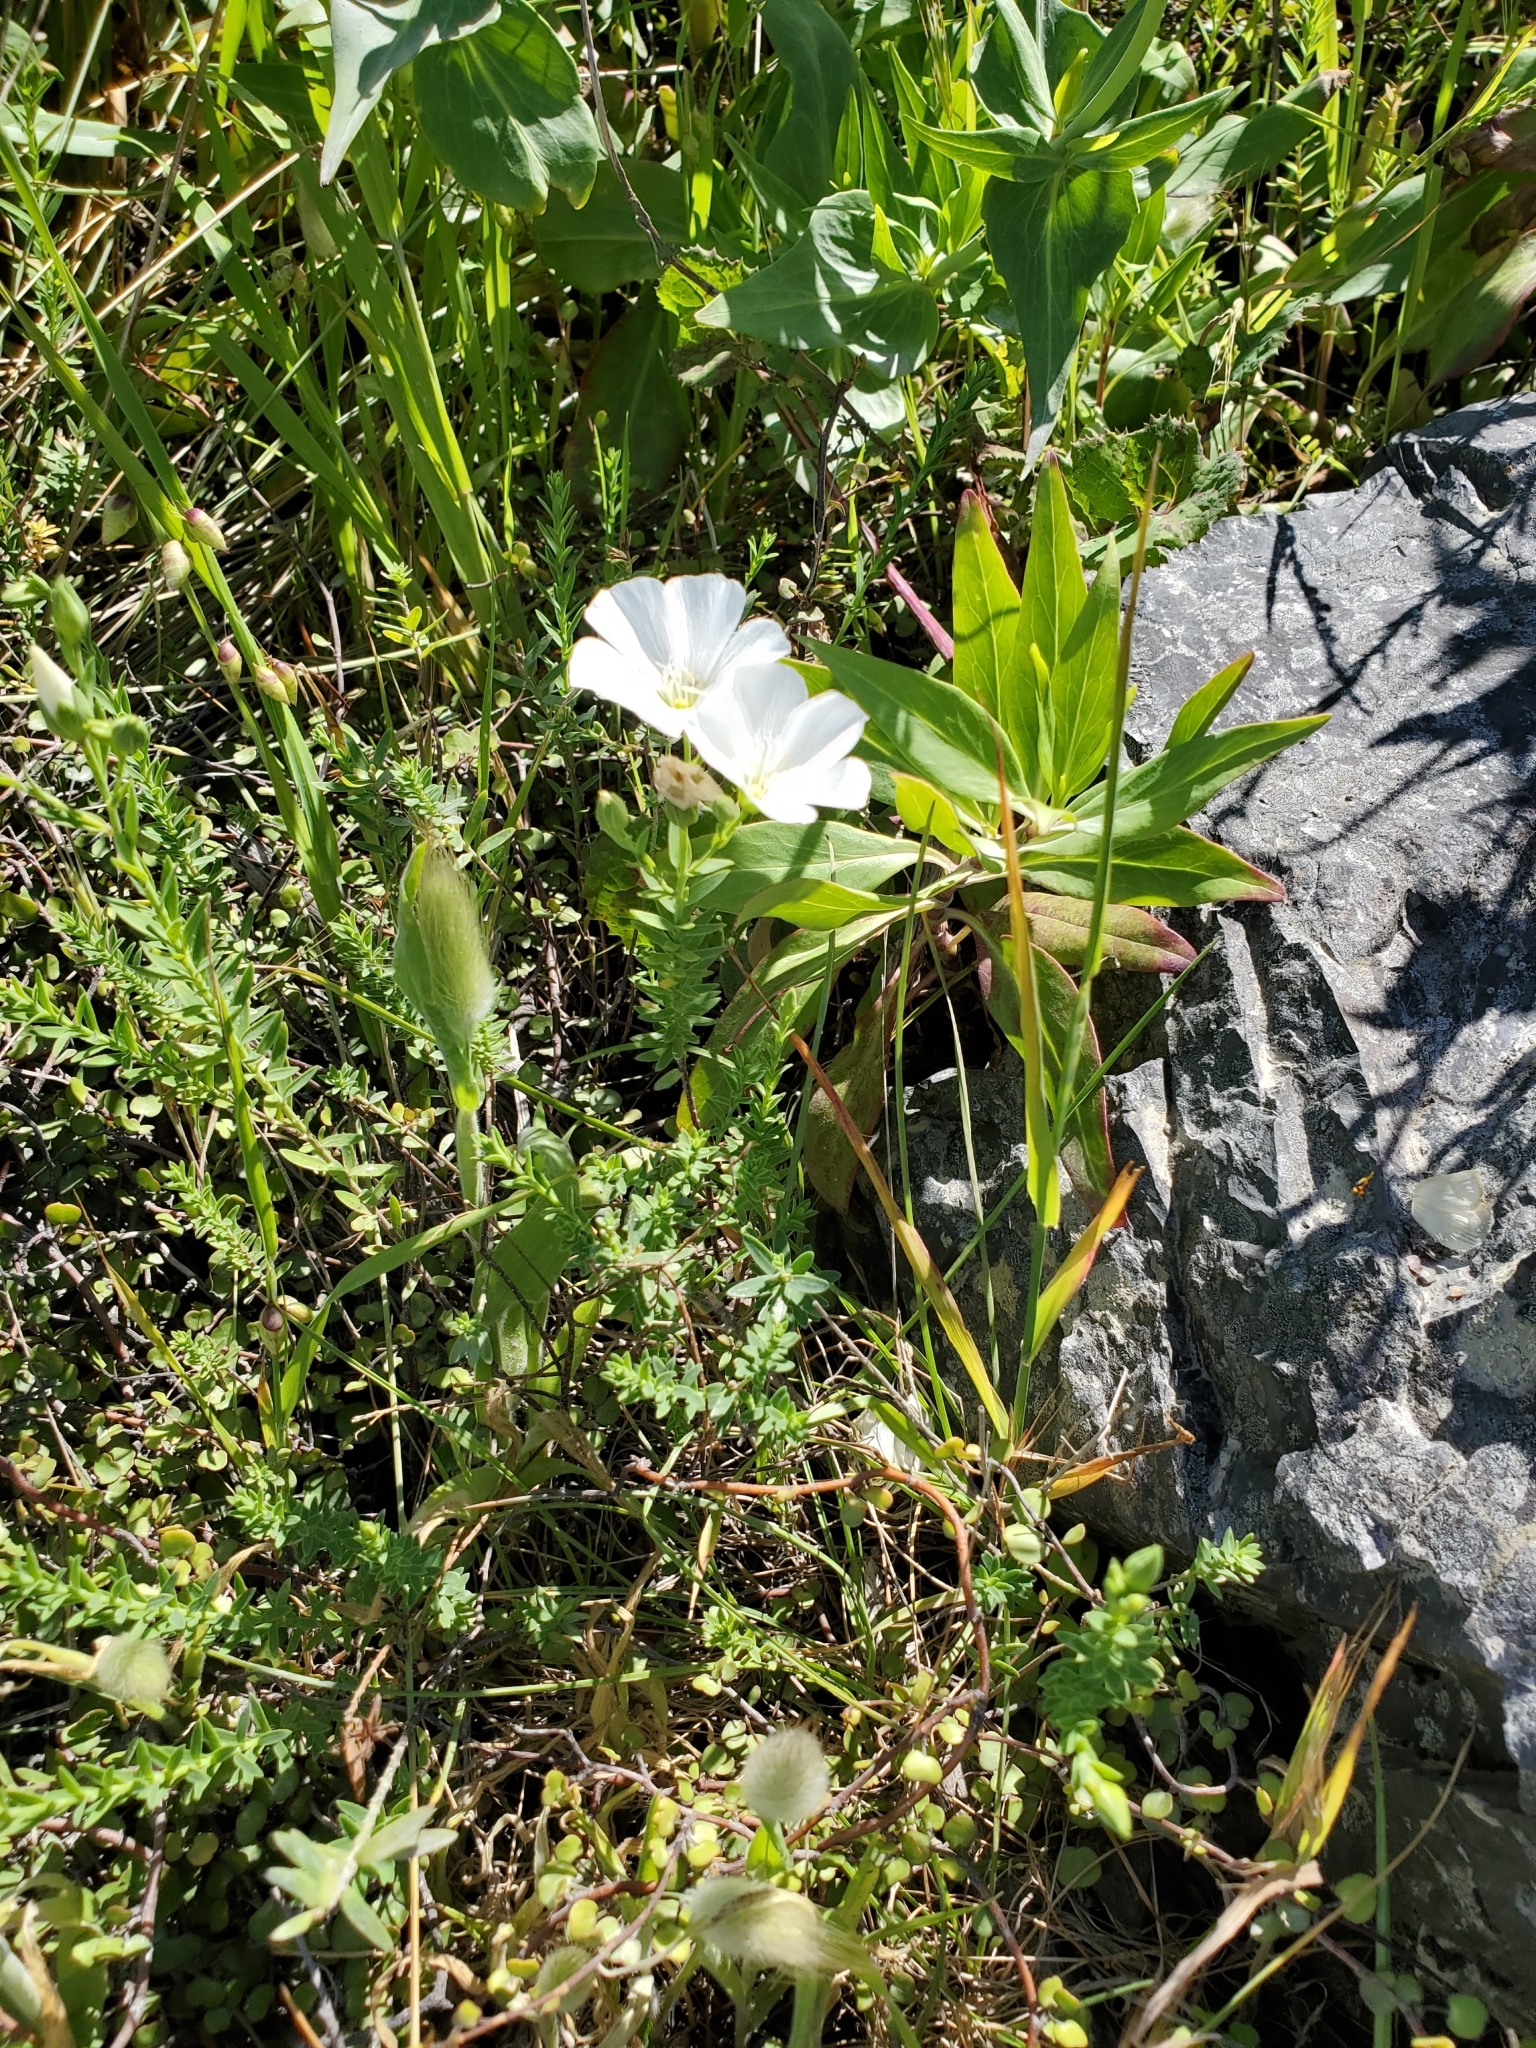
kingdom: Plantae
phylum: Tracheophyta
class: Magnoliopsida
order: Malpighiales
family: Linaceae
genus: Linum
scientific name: Linum monogynum
